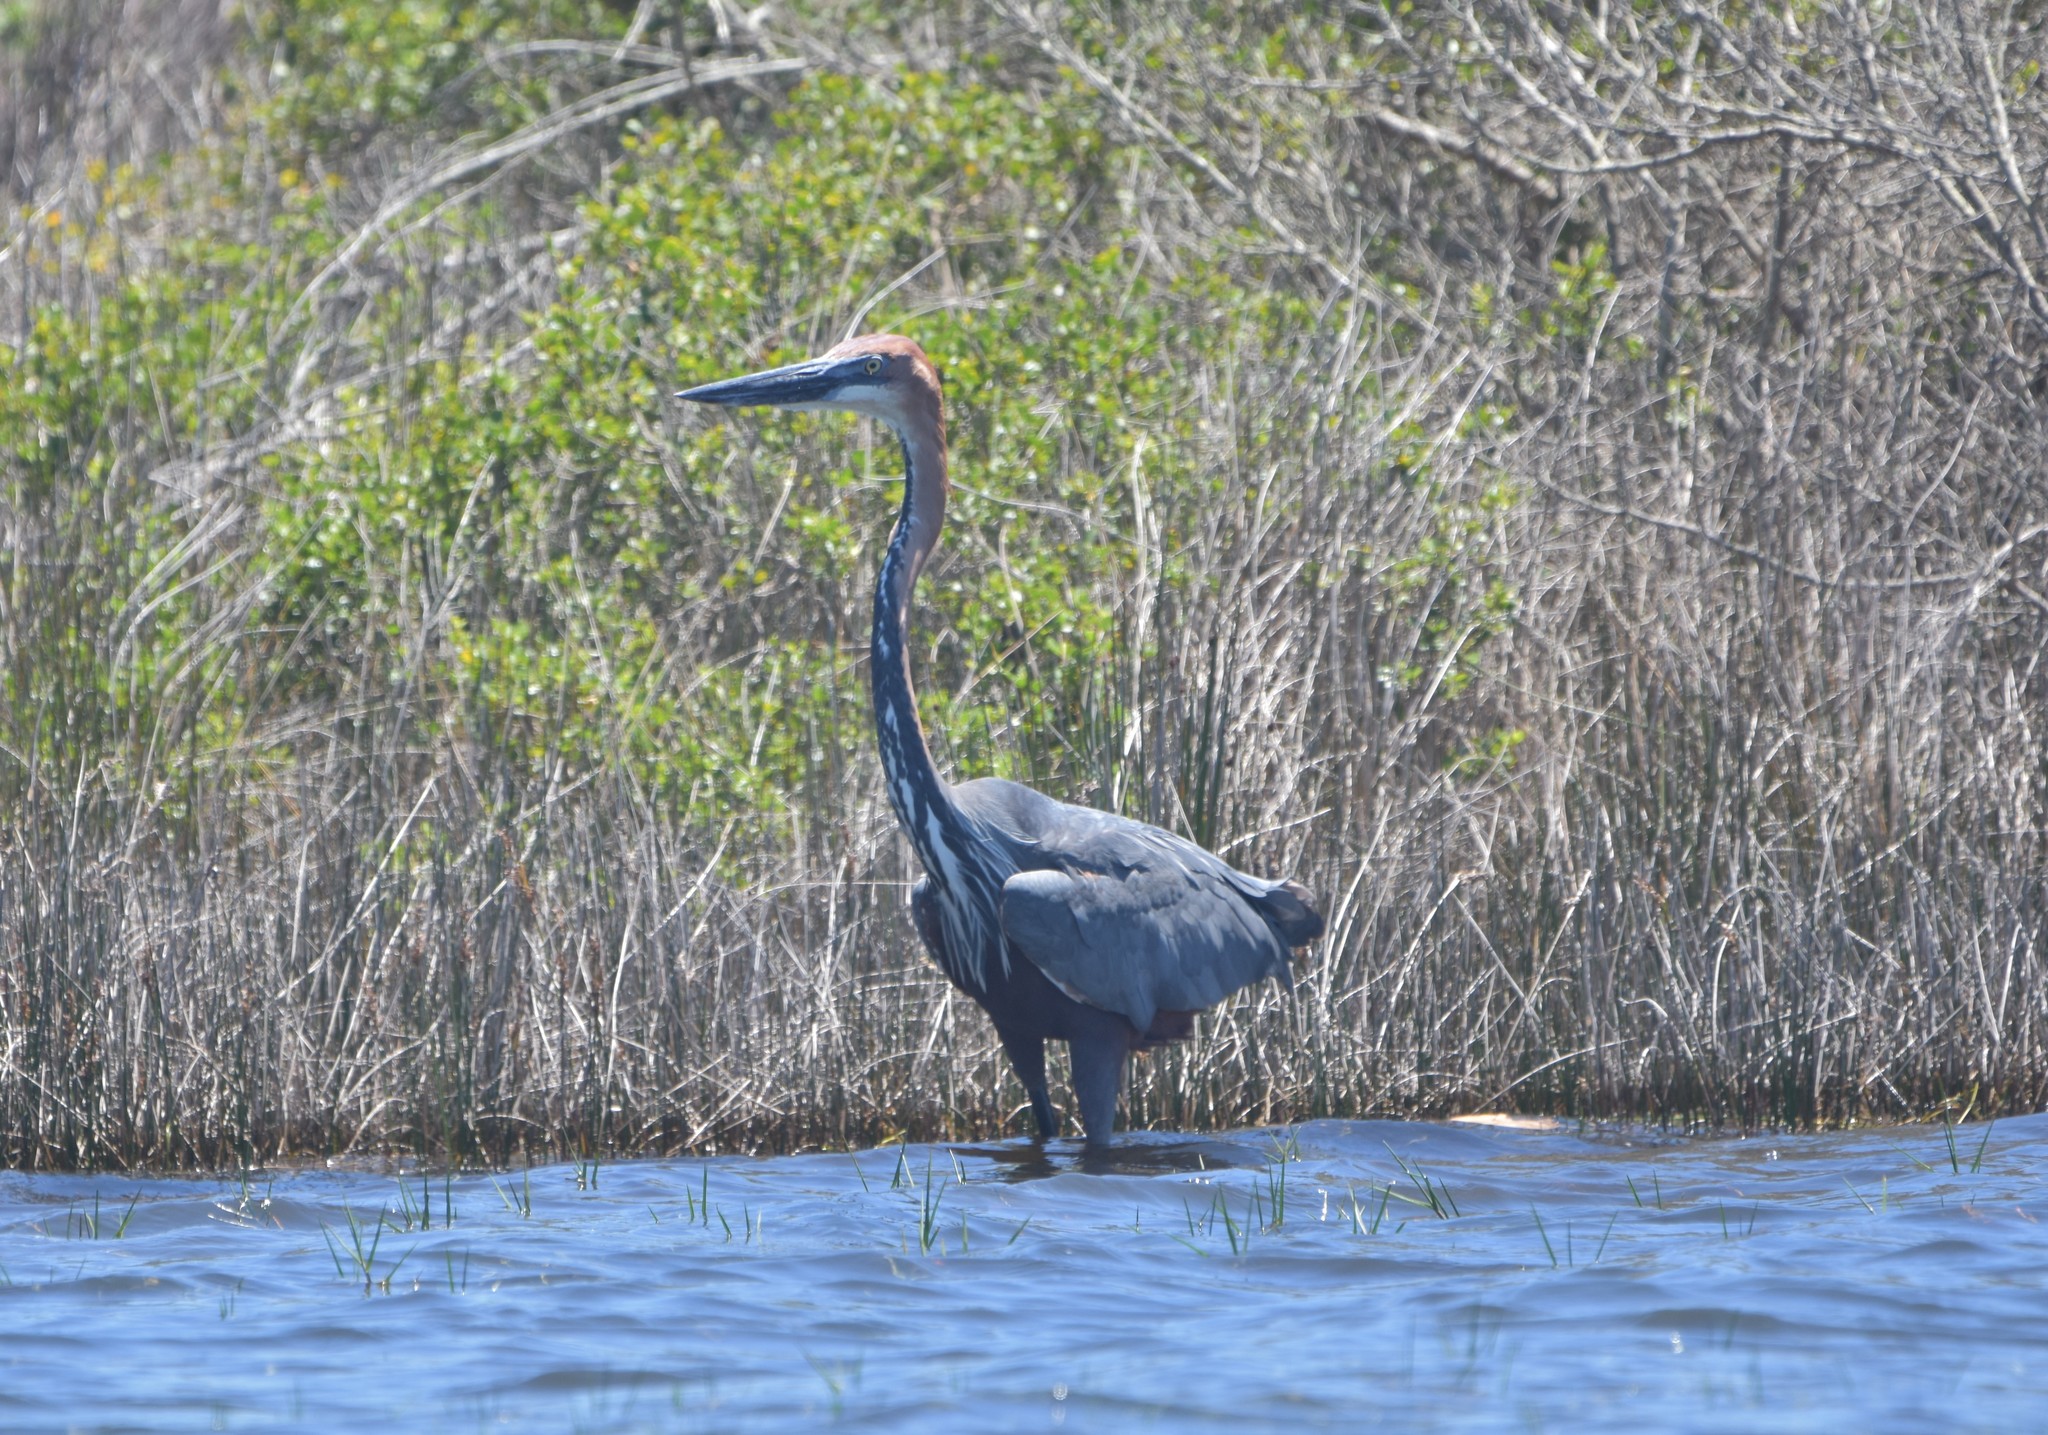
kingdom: Animalia
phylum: Chordata
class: Aves
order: Pelecaniformes
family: Ardeidae
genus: Ardea
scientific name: Ardea goliath
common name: Goliath heron
